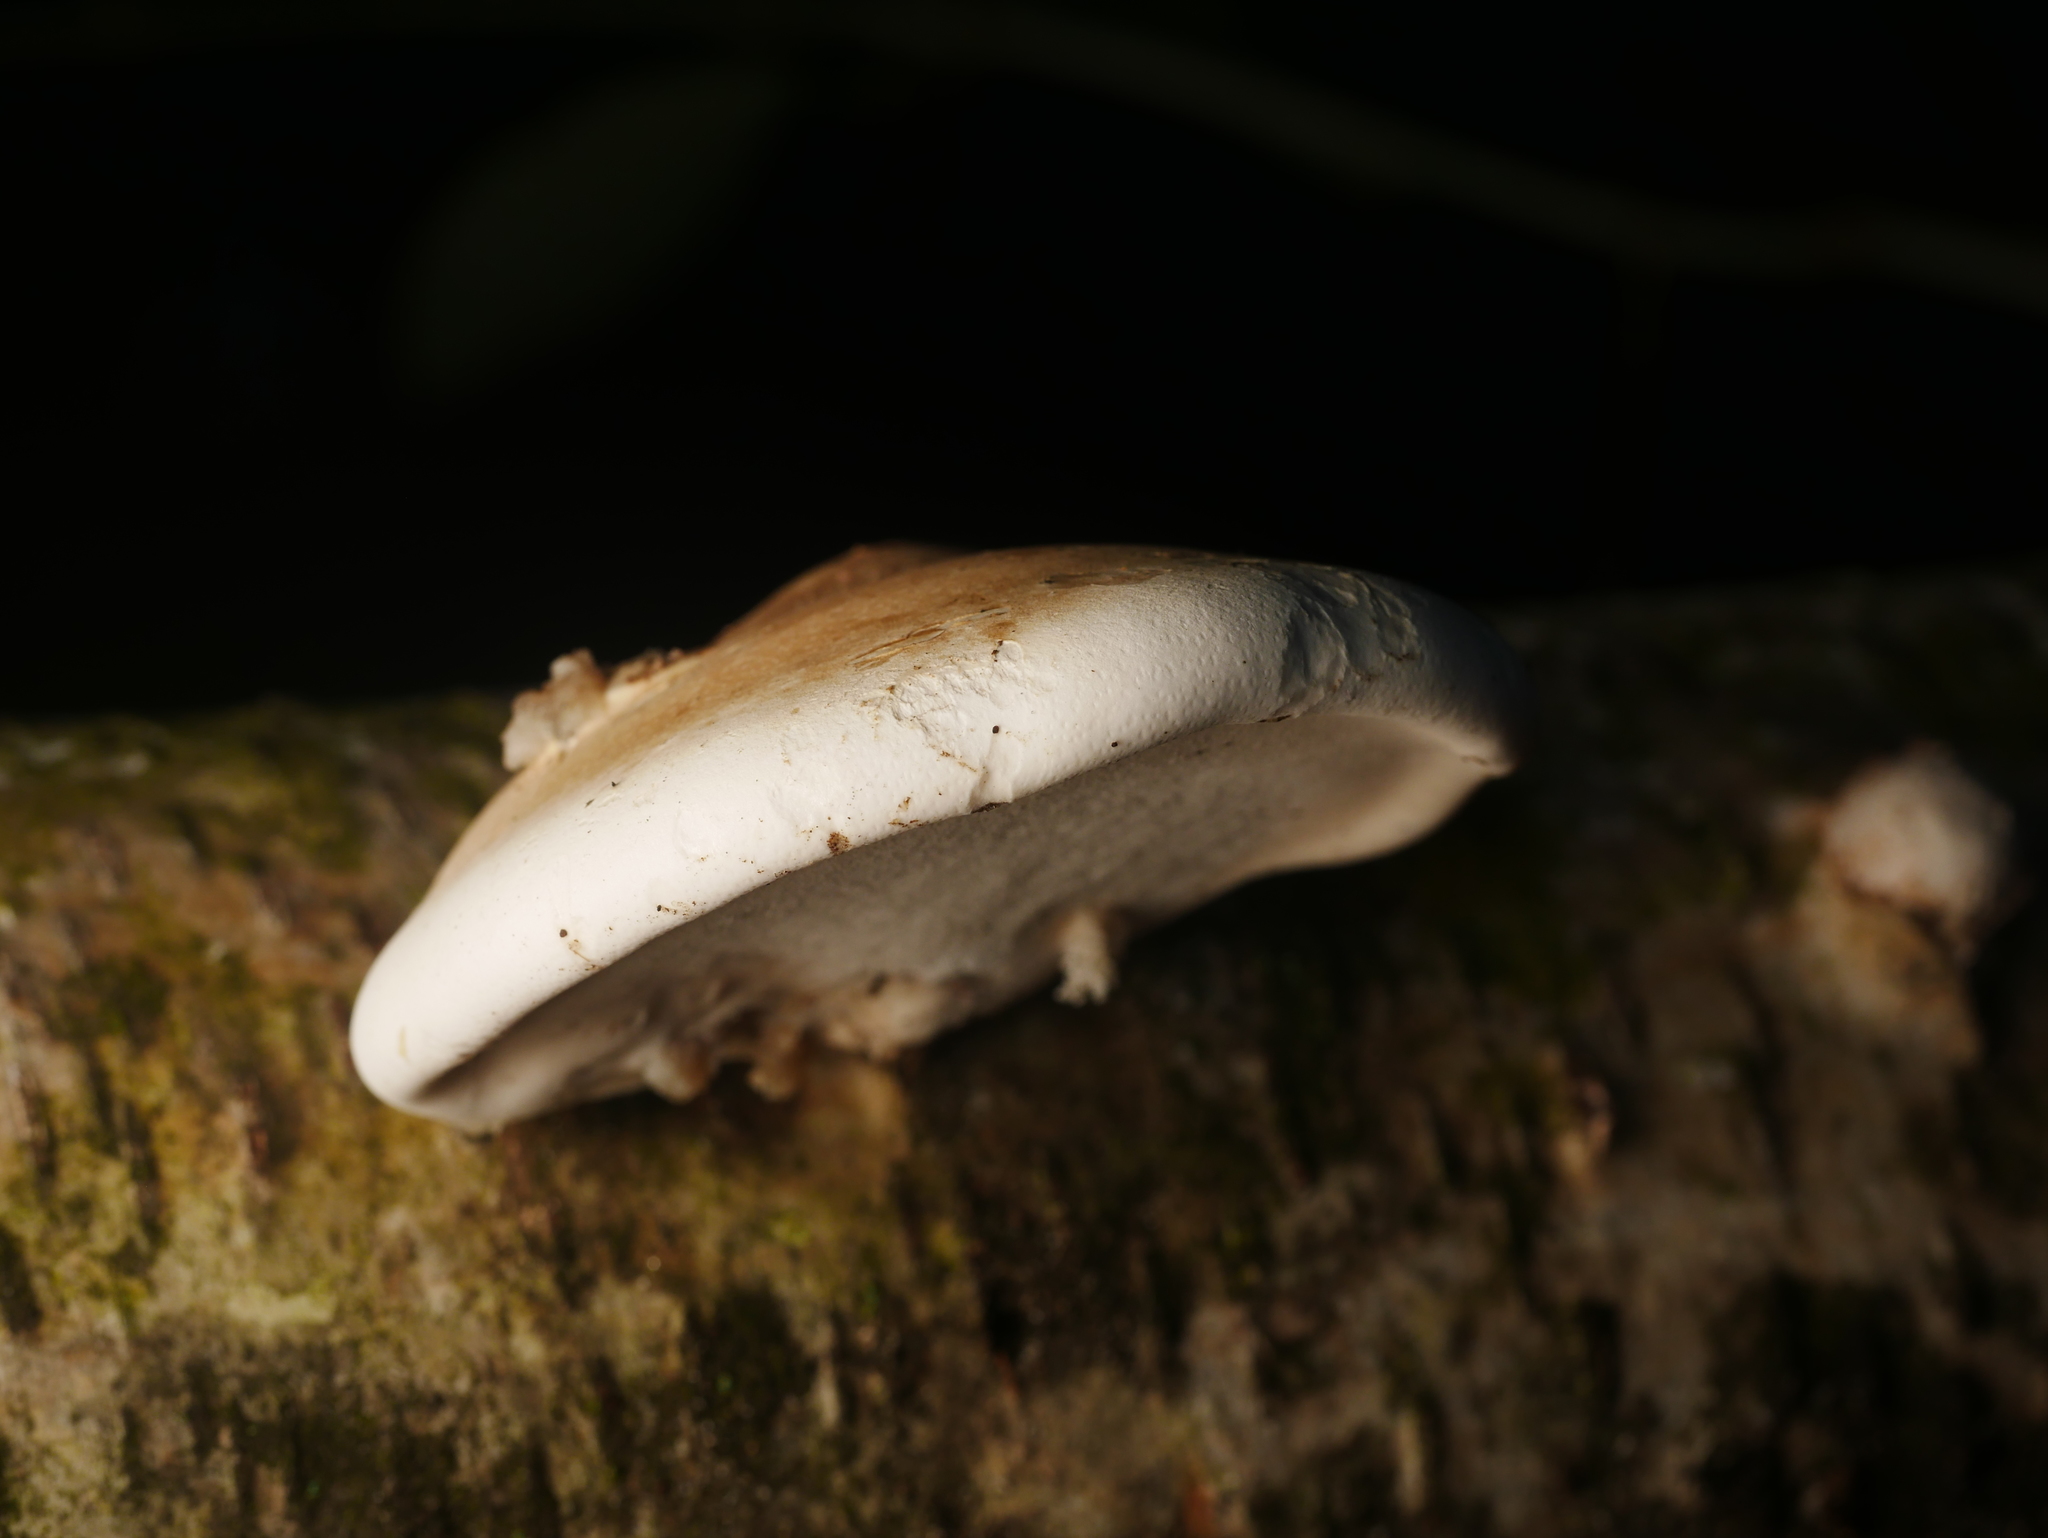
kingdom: Fungi
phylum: Basidiomycota
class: Agaricomycetes
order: Polyporales
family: Fomitopsidaceae
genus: Fomitopsis
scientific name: Fomitopsis betulina
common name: Birch polypore
